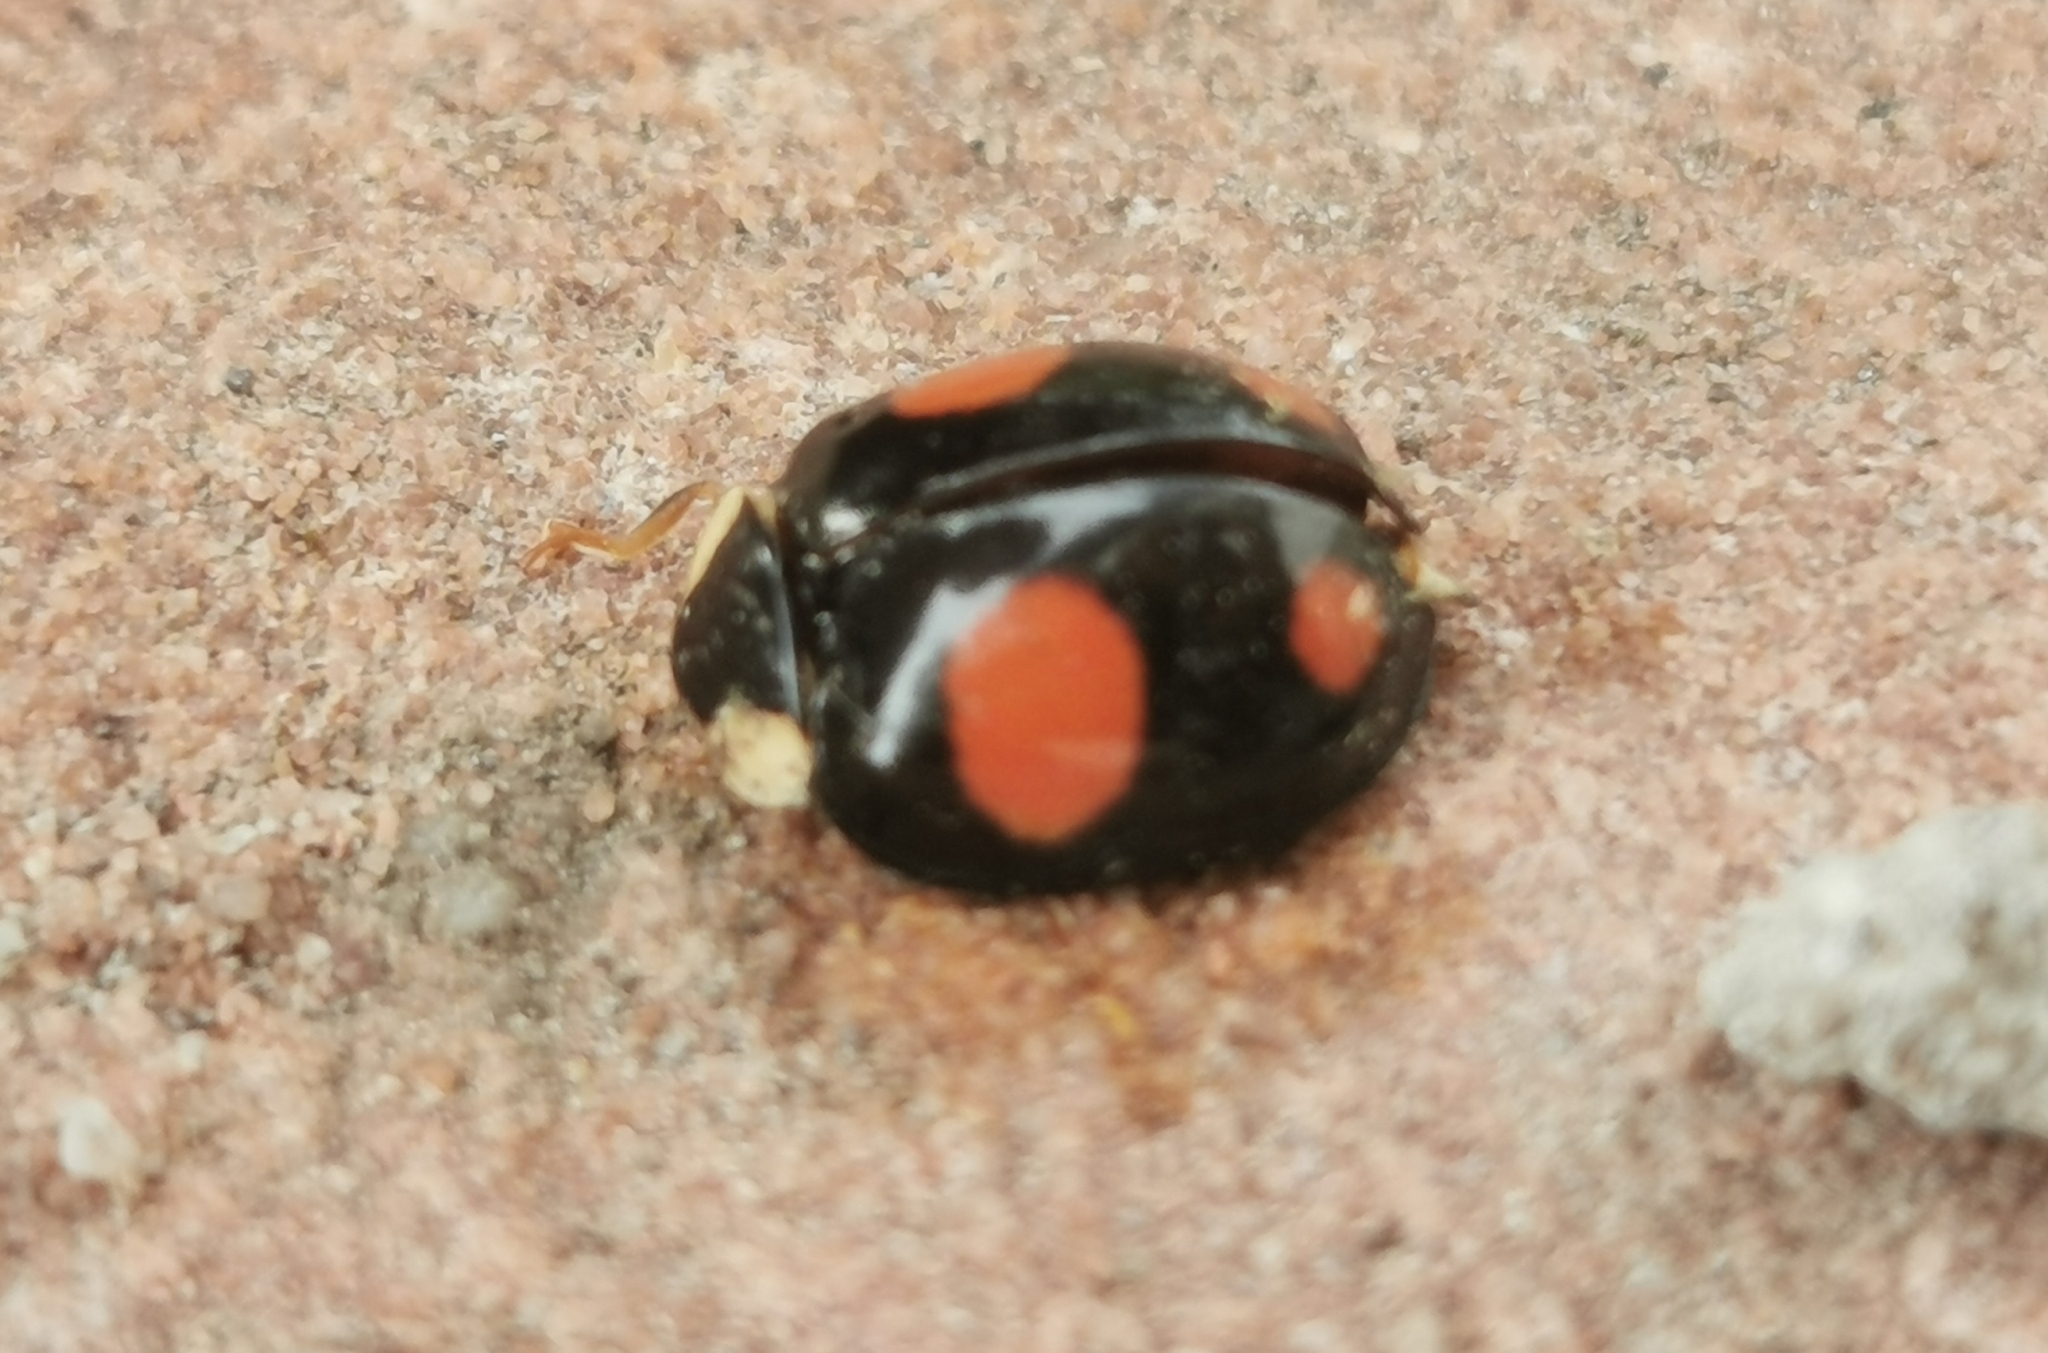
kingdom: Fungi
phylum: Ascomycota
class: Laboulbeniomycetes
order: Laboulbeniales
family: Laboulbeniaceae
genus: Hesperomyces
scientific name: Hesperomyces harmoniae
